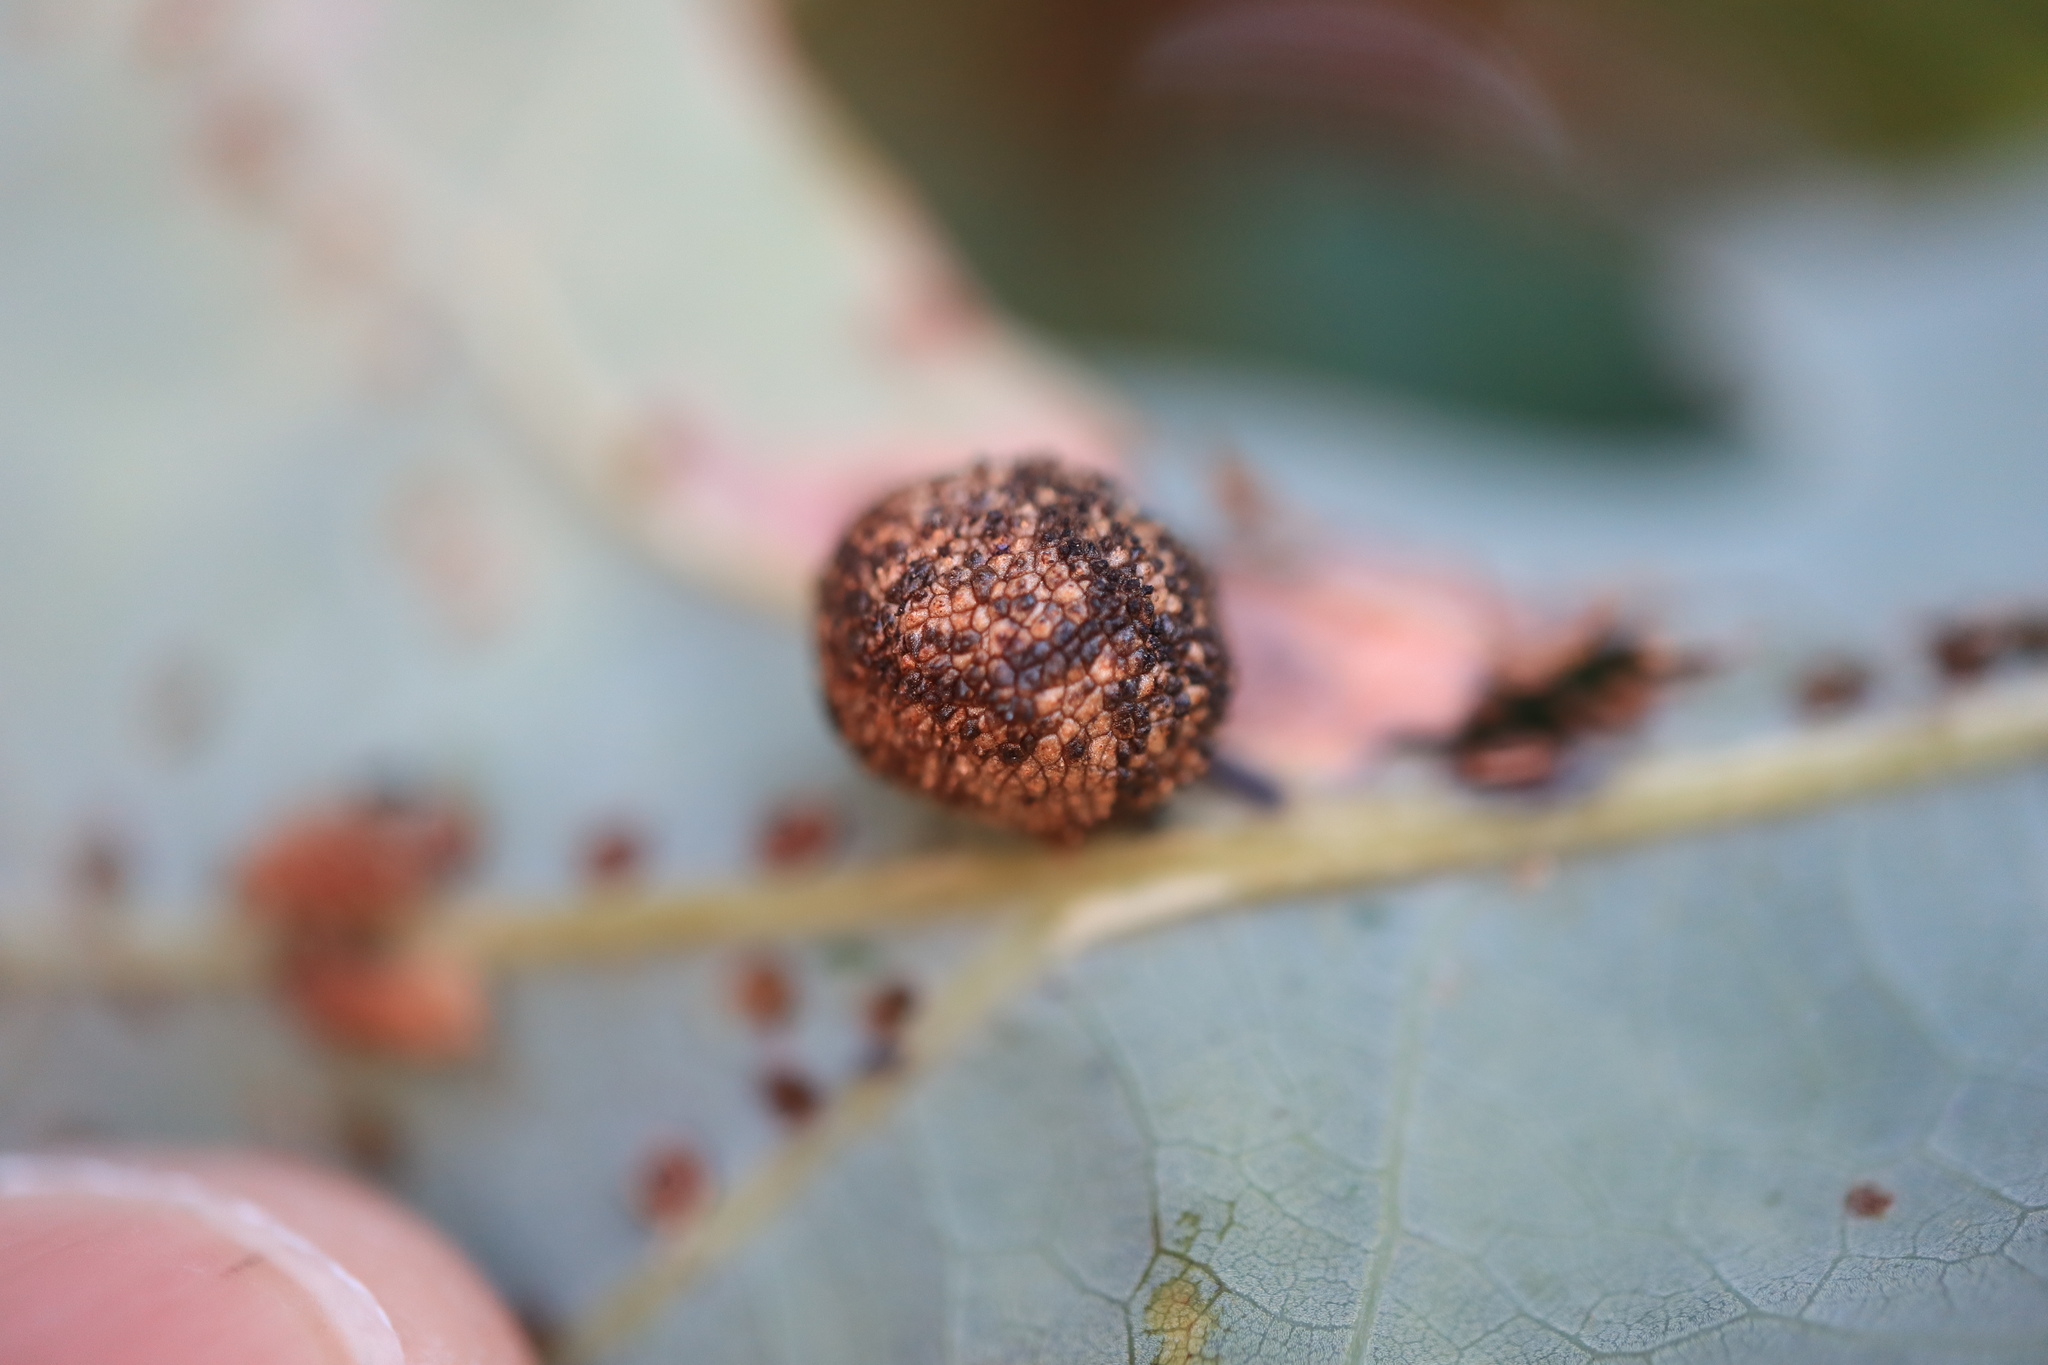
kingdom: Animalia
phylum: Arthropoda
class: Insecta
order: Hymenoptera
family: Cynipidae
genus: Acraspis
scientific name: Acraspis
